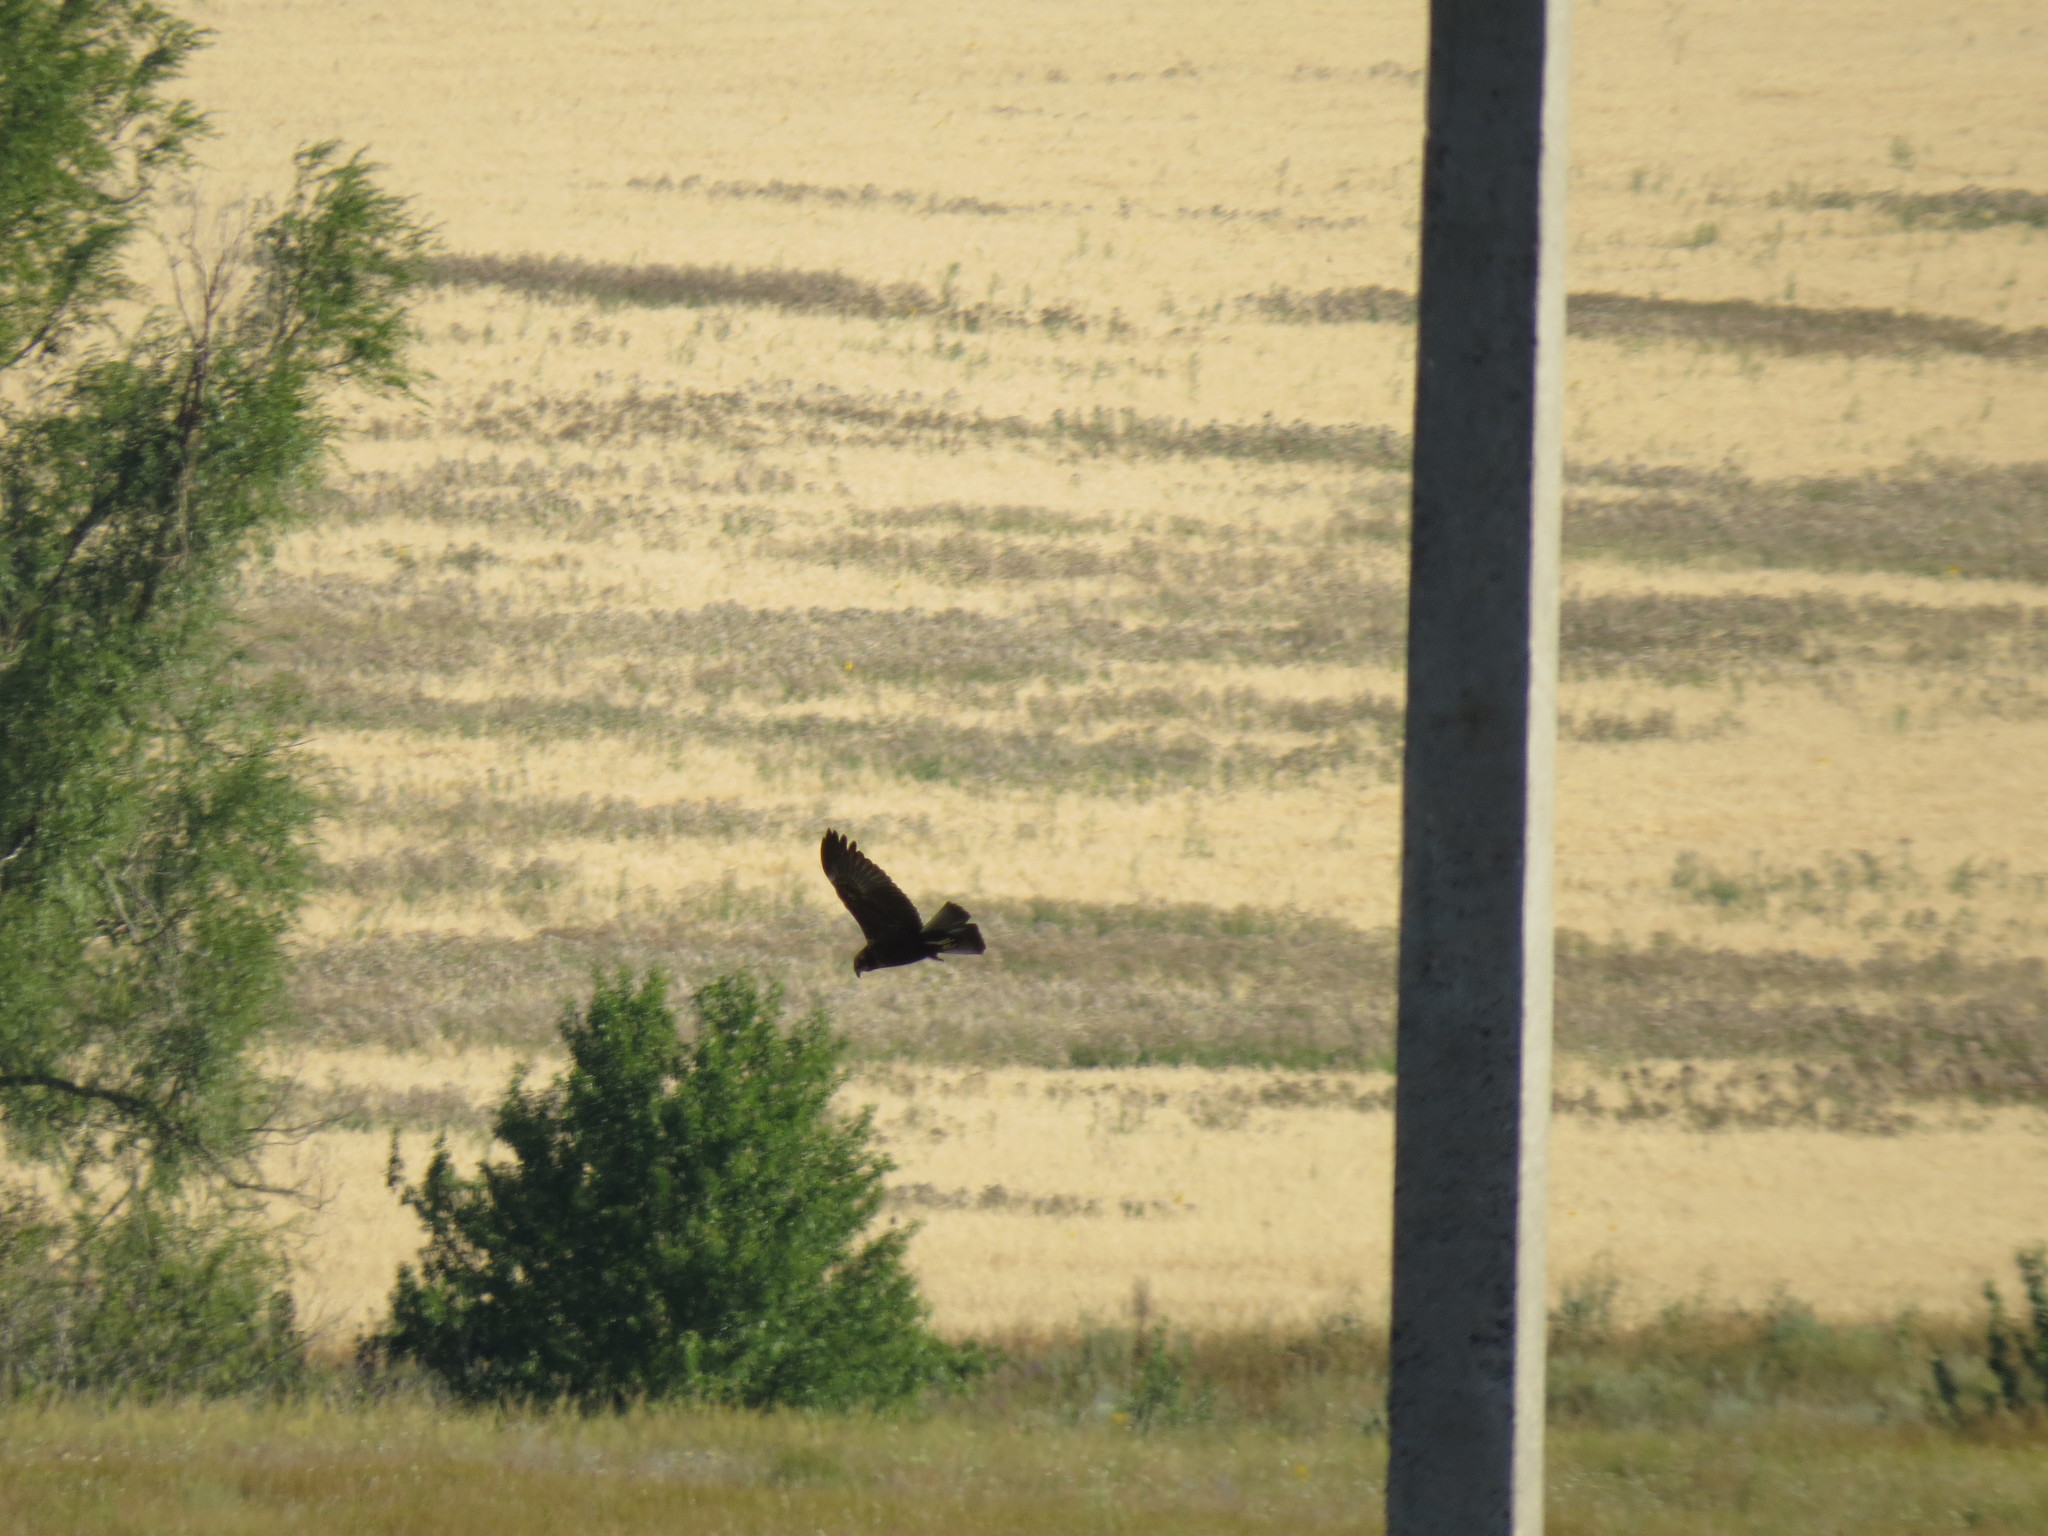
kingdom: Animalia
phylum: Chordata
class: Aves
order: Accipitriformes
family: Accipitridae
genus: Circus
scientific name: Circus aeruginosus
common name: Western marsh harrier
